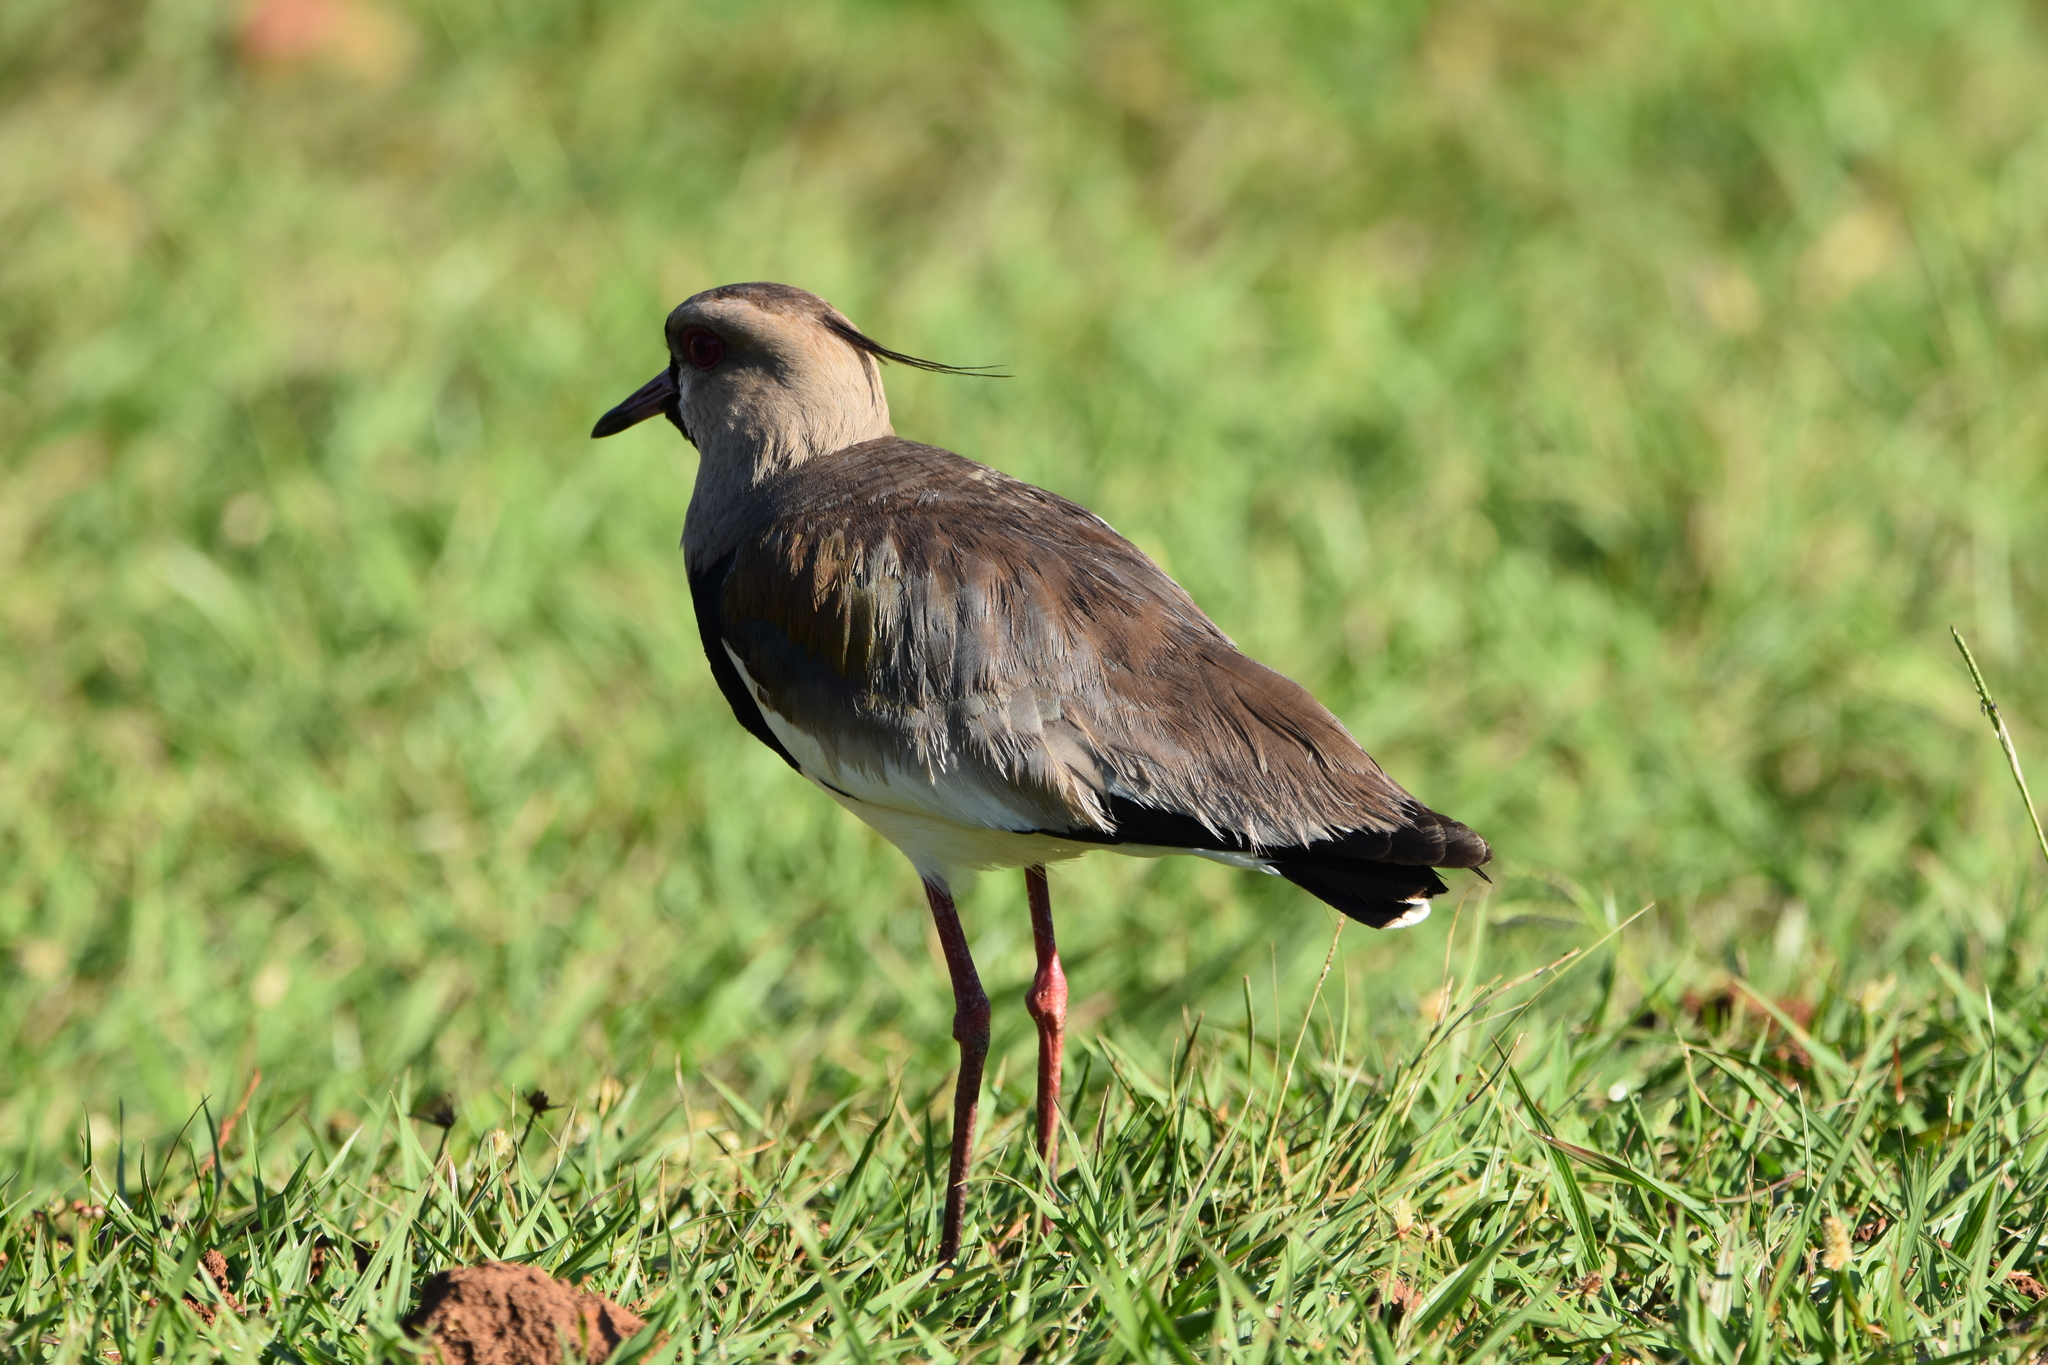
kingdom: Animalia
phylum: Chordata
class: Aves
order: Charadriiformes
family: Charadriidae
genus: Vanellus
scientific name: Vanellus chilensis
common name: Southern lapwing
